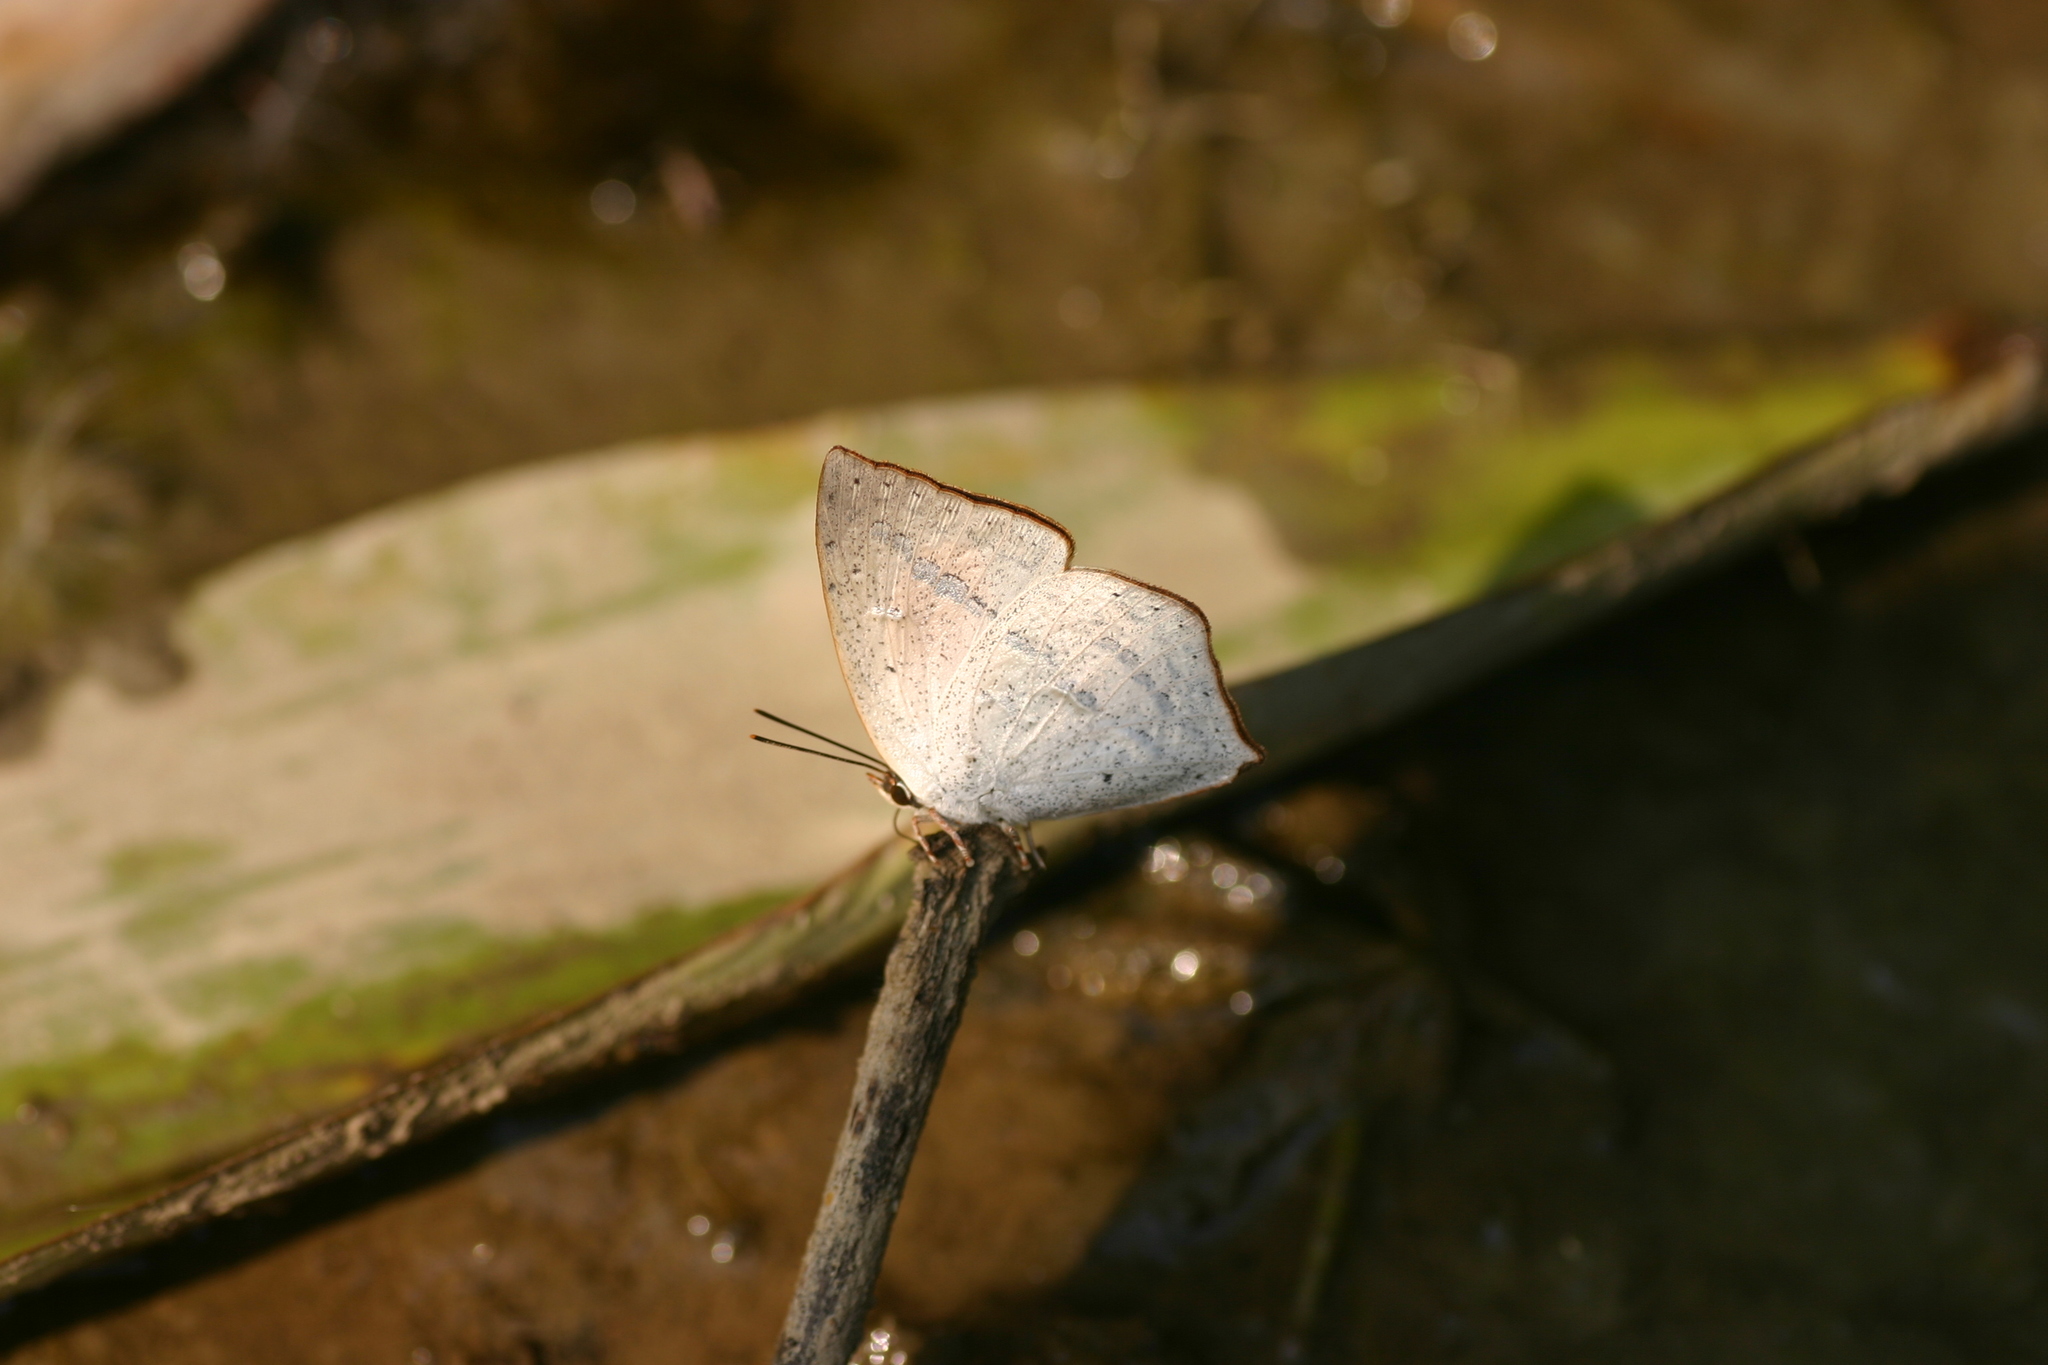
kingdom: Animalia
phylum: Arthropoda
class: Insecta
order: Lepidoptera
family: Lycaenidae
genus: Curetis
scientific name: Curetis bulis
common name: Bright sunbeam
